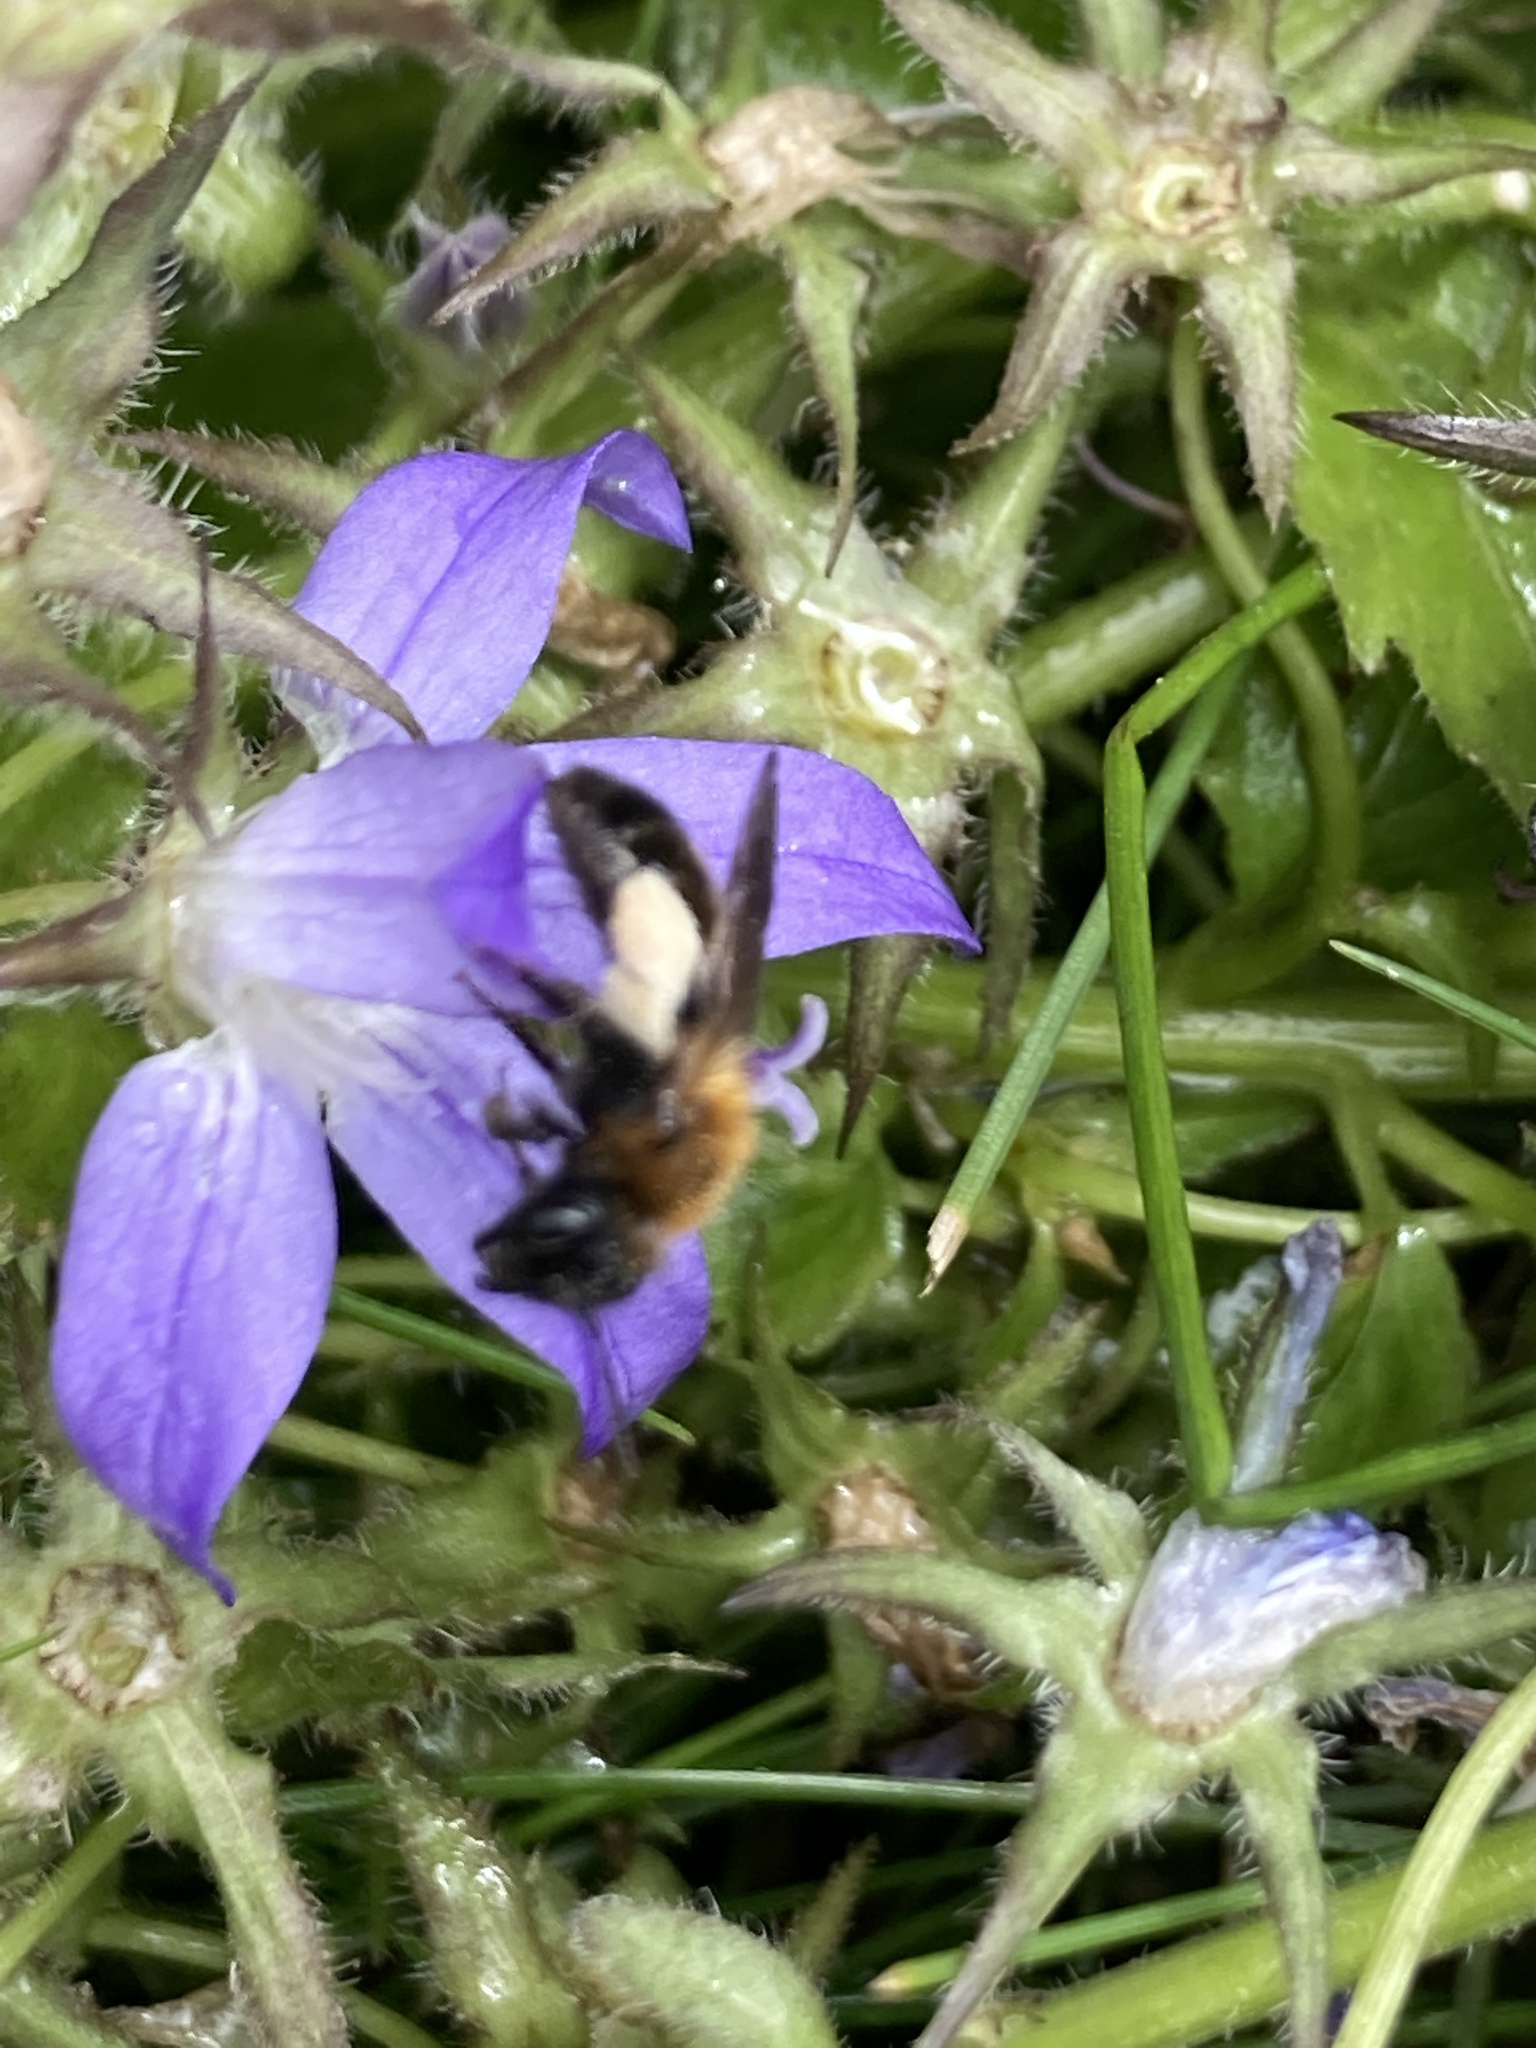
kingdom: Animalia
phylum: Arthropoda
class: Insecta
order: Hymenoptera
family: Andrenidae
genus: Andrena
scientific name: Andrena bicolor
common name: Gwynne's mining bee
